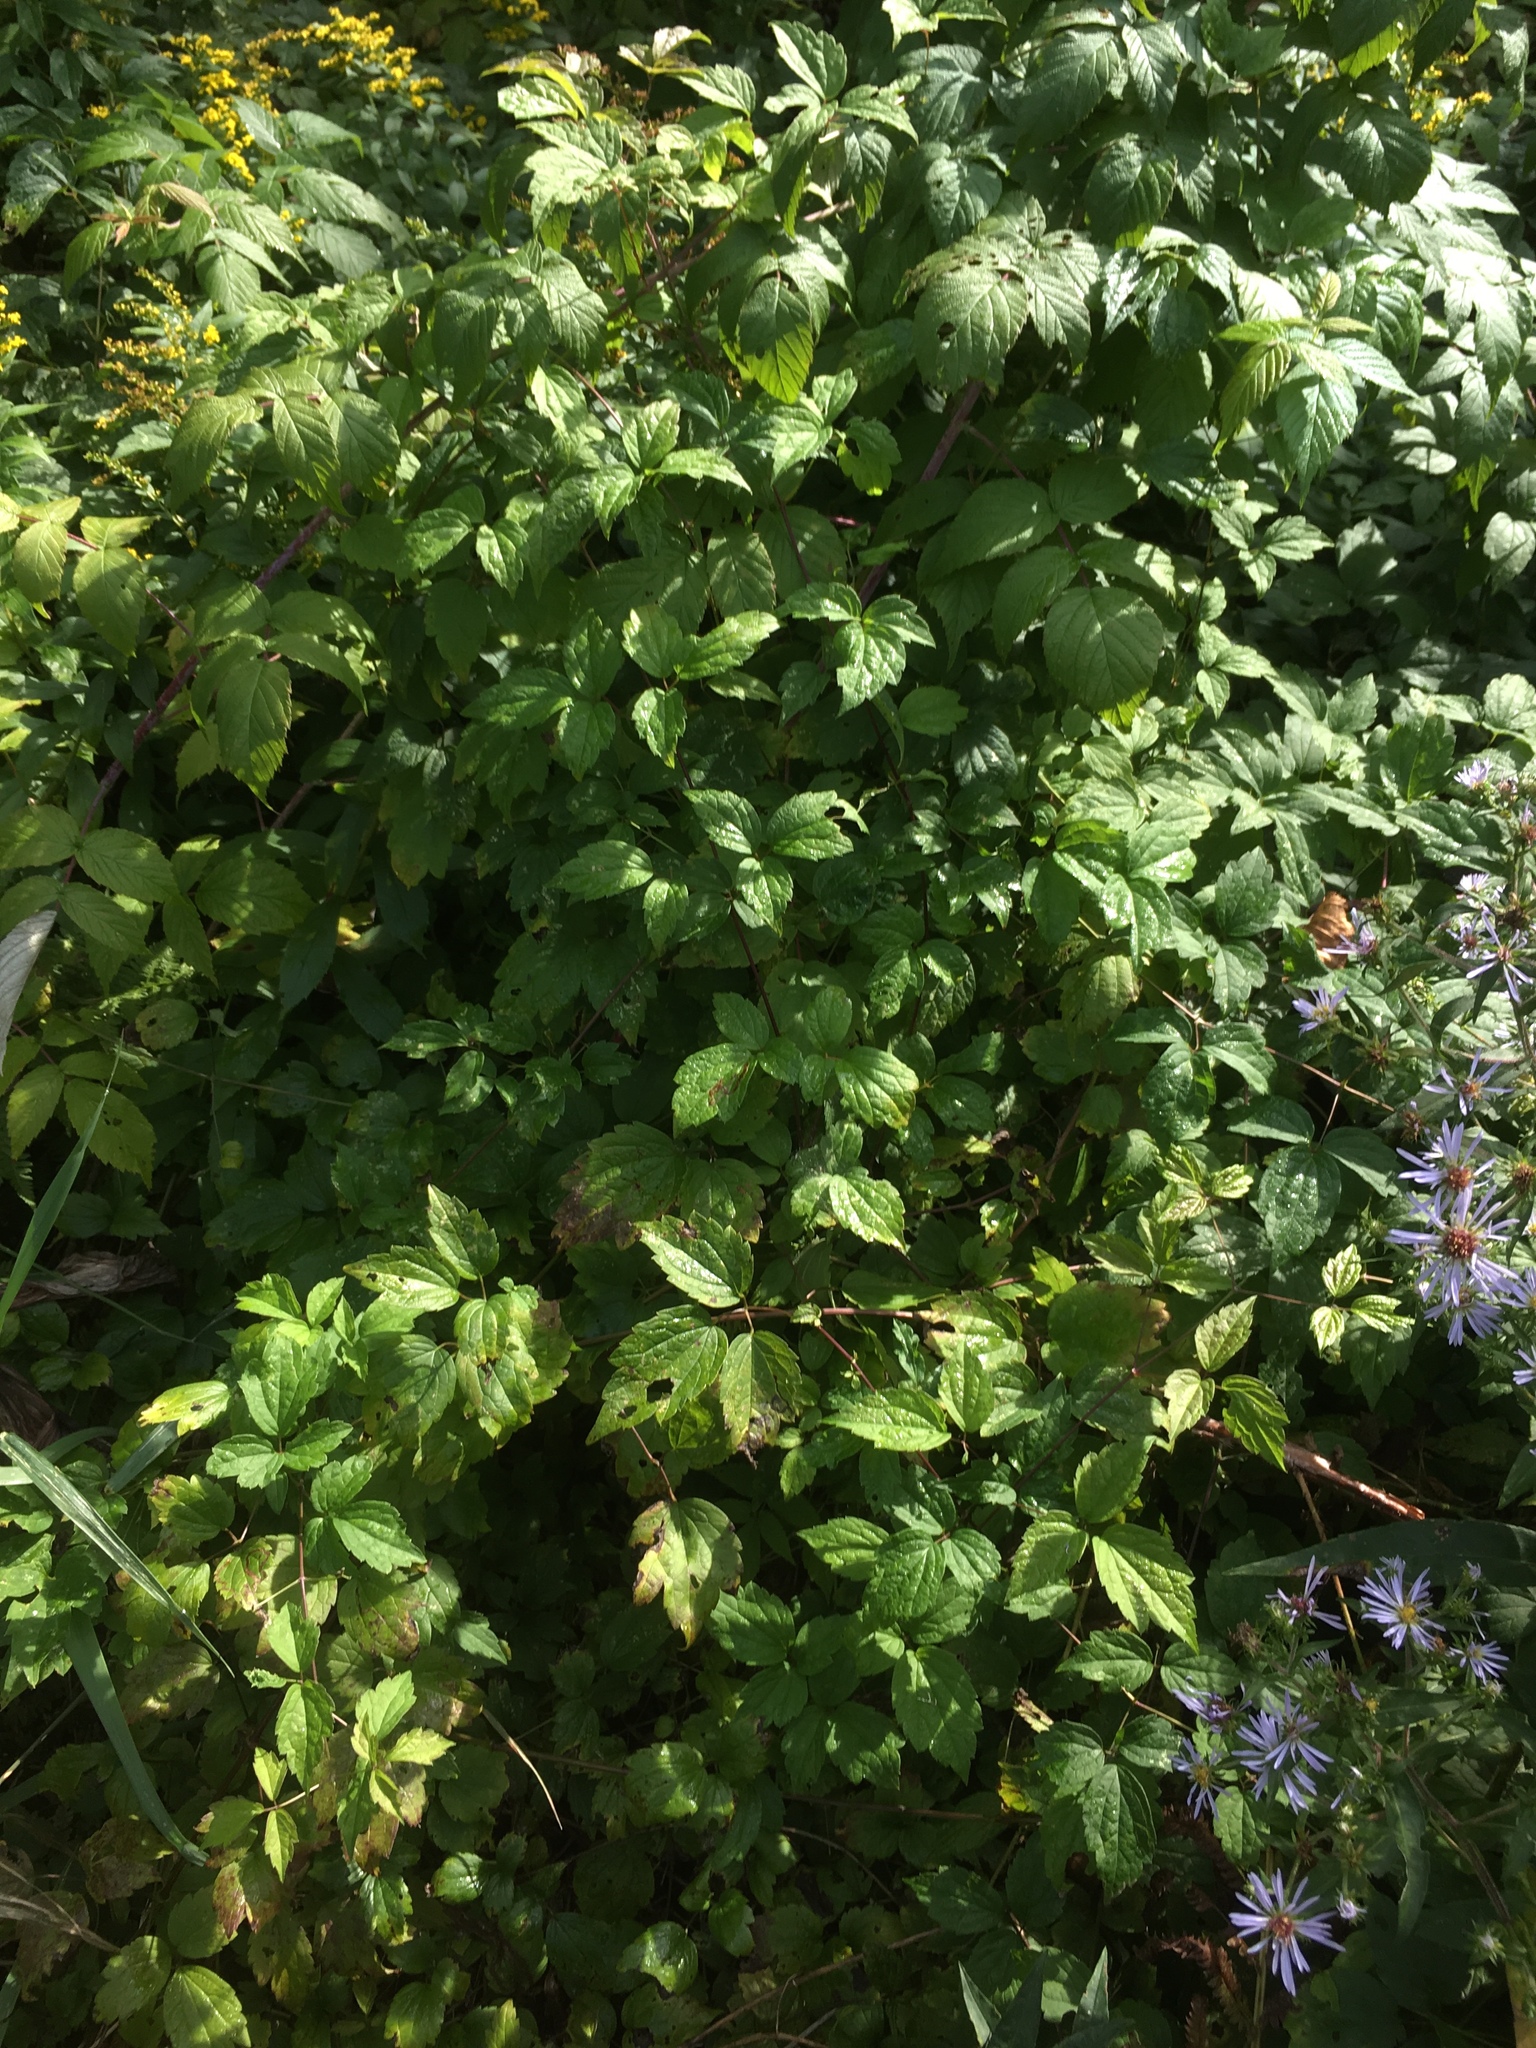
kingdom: Plantae
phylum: Tracheophyta
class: Magnoliopsida
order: Ranunculales
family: Ranunculaceae
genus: Clematis
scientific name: Clematis virginiana
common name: Virgin's-bower
